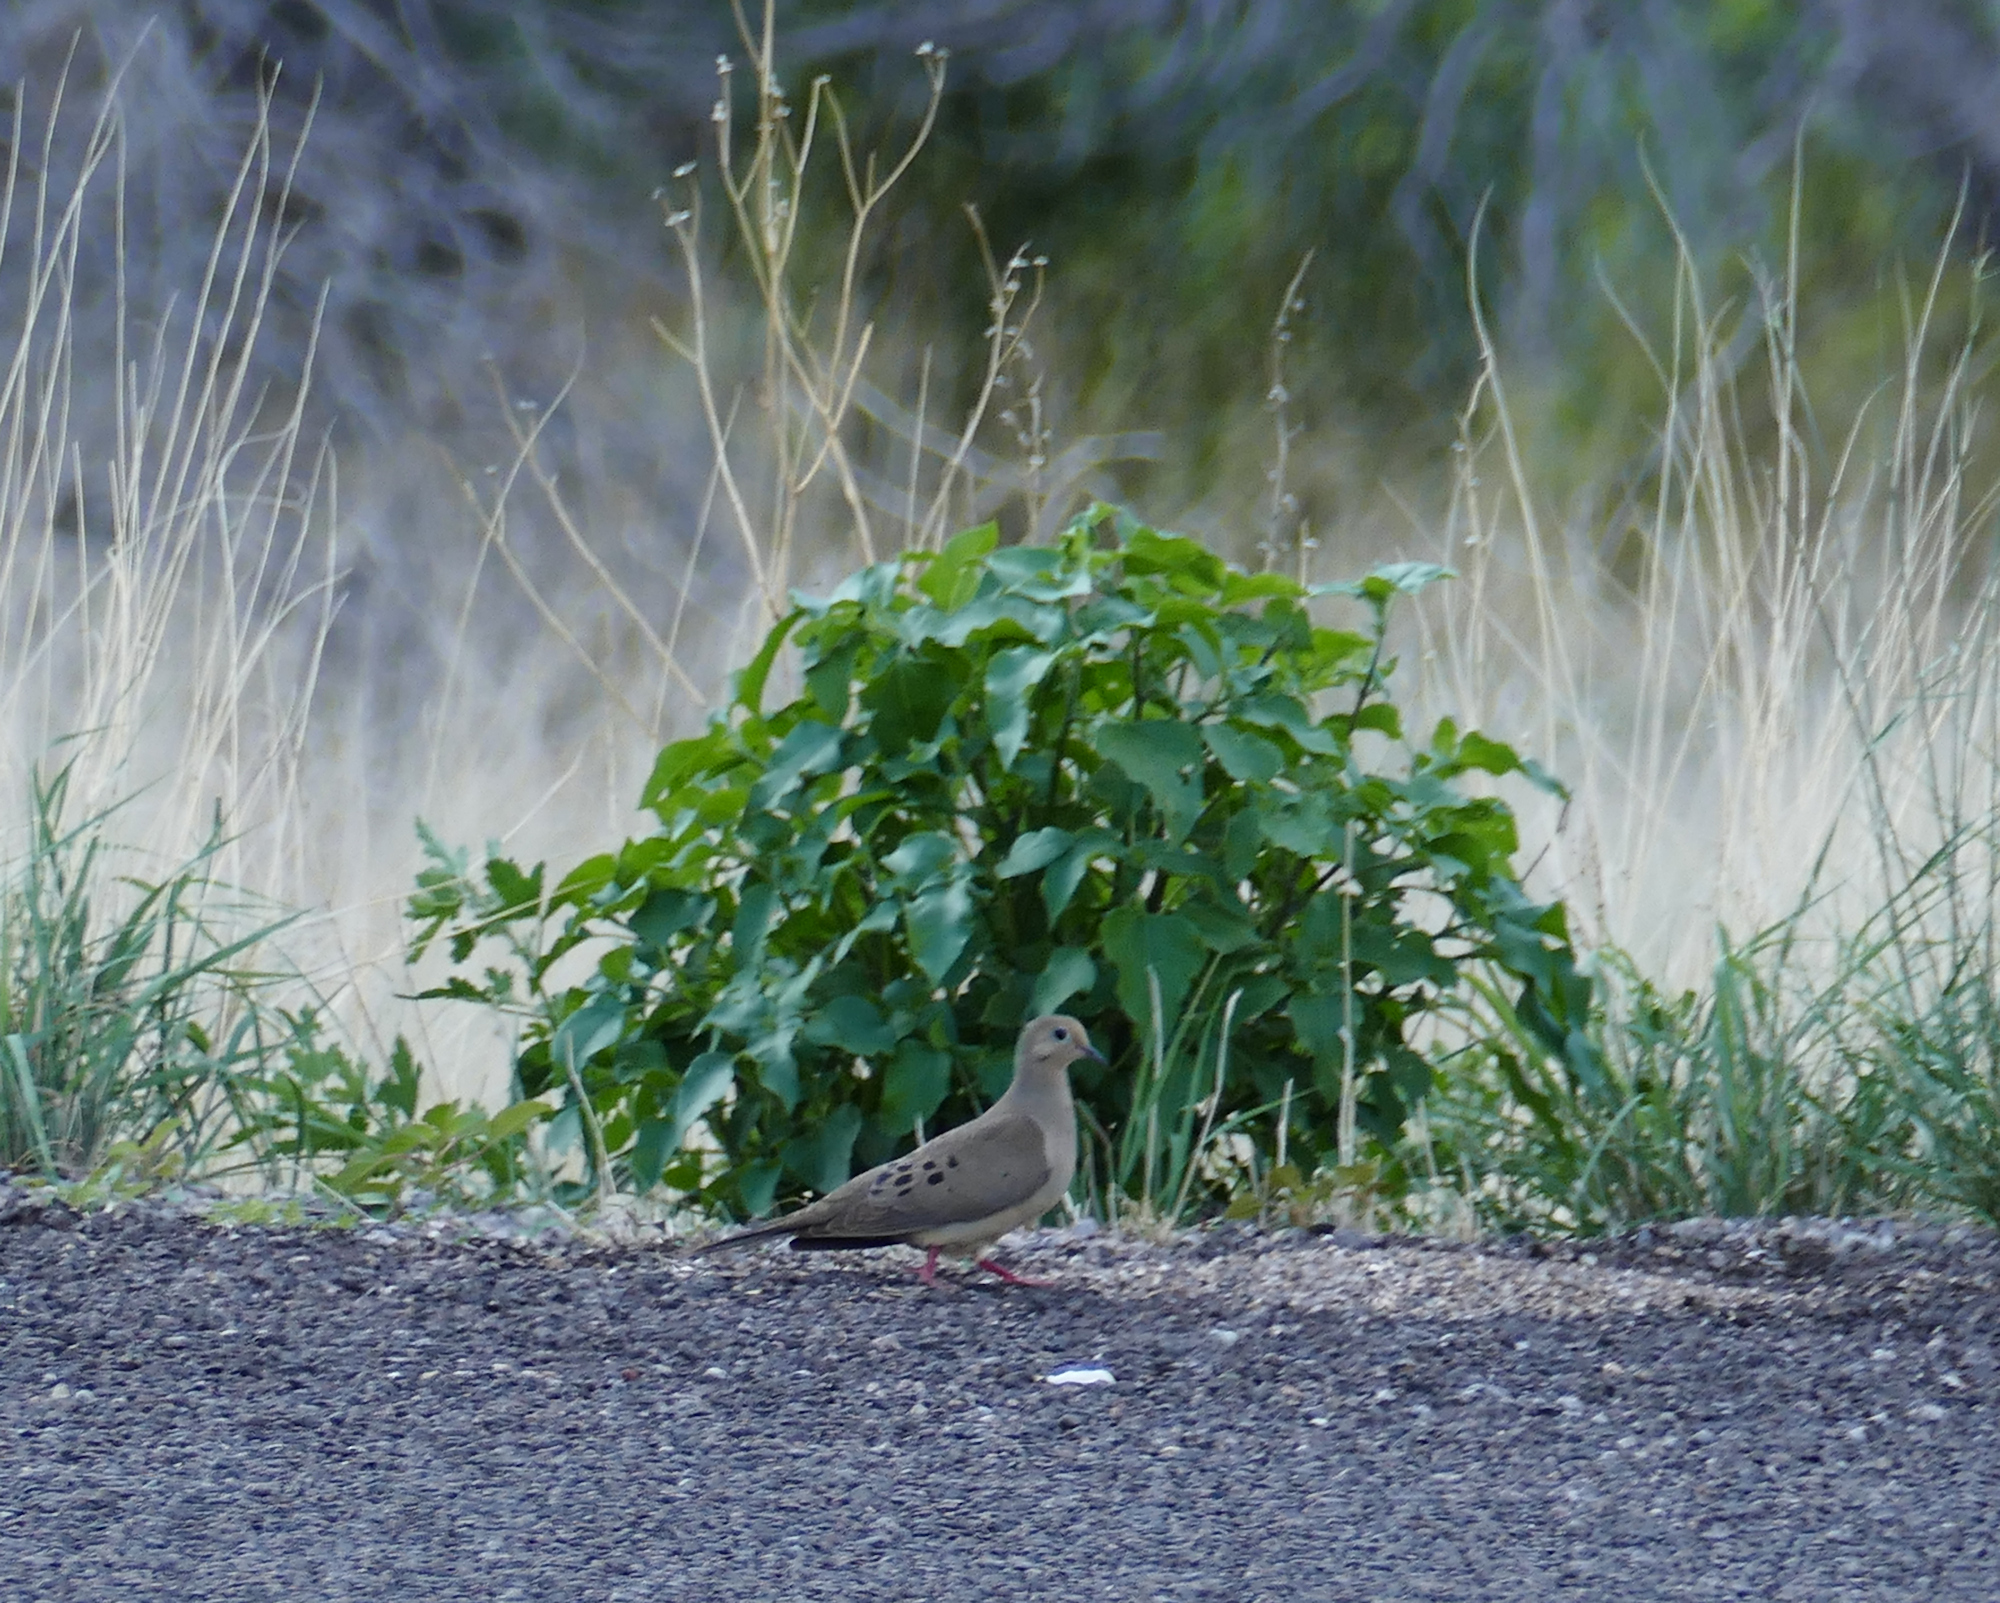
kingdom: Animalia
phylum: Chordata
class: Aves
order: Columbiformes
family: Columbidae
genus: Zenaida
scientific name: Zenaida macroura
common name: Mourning dove
